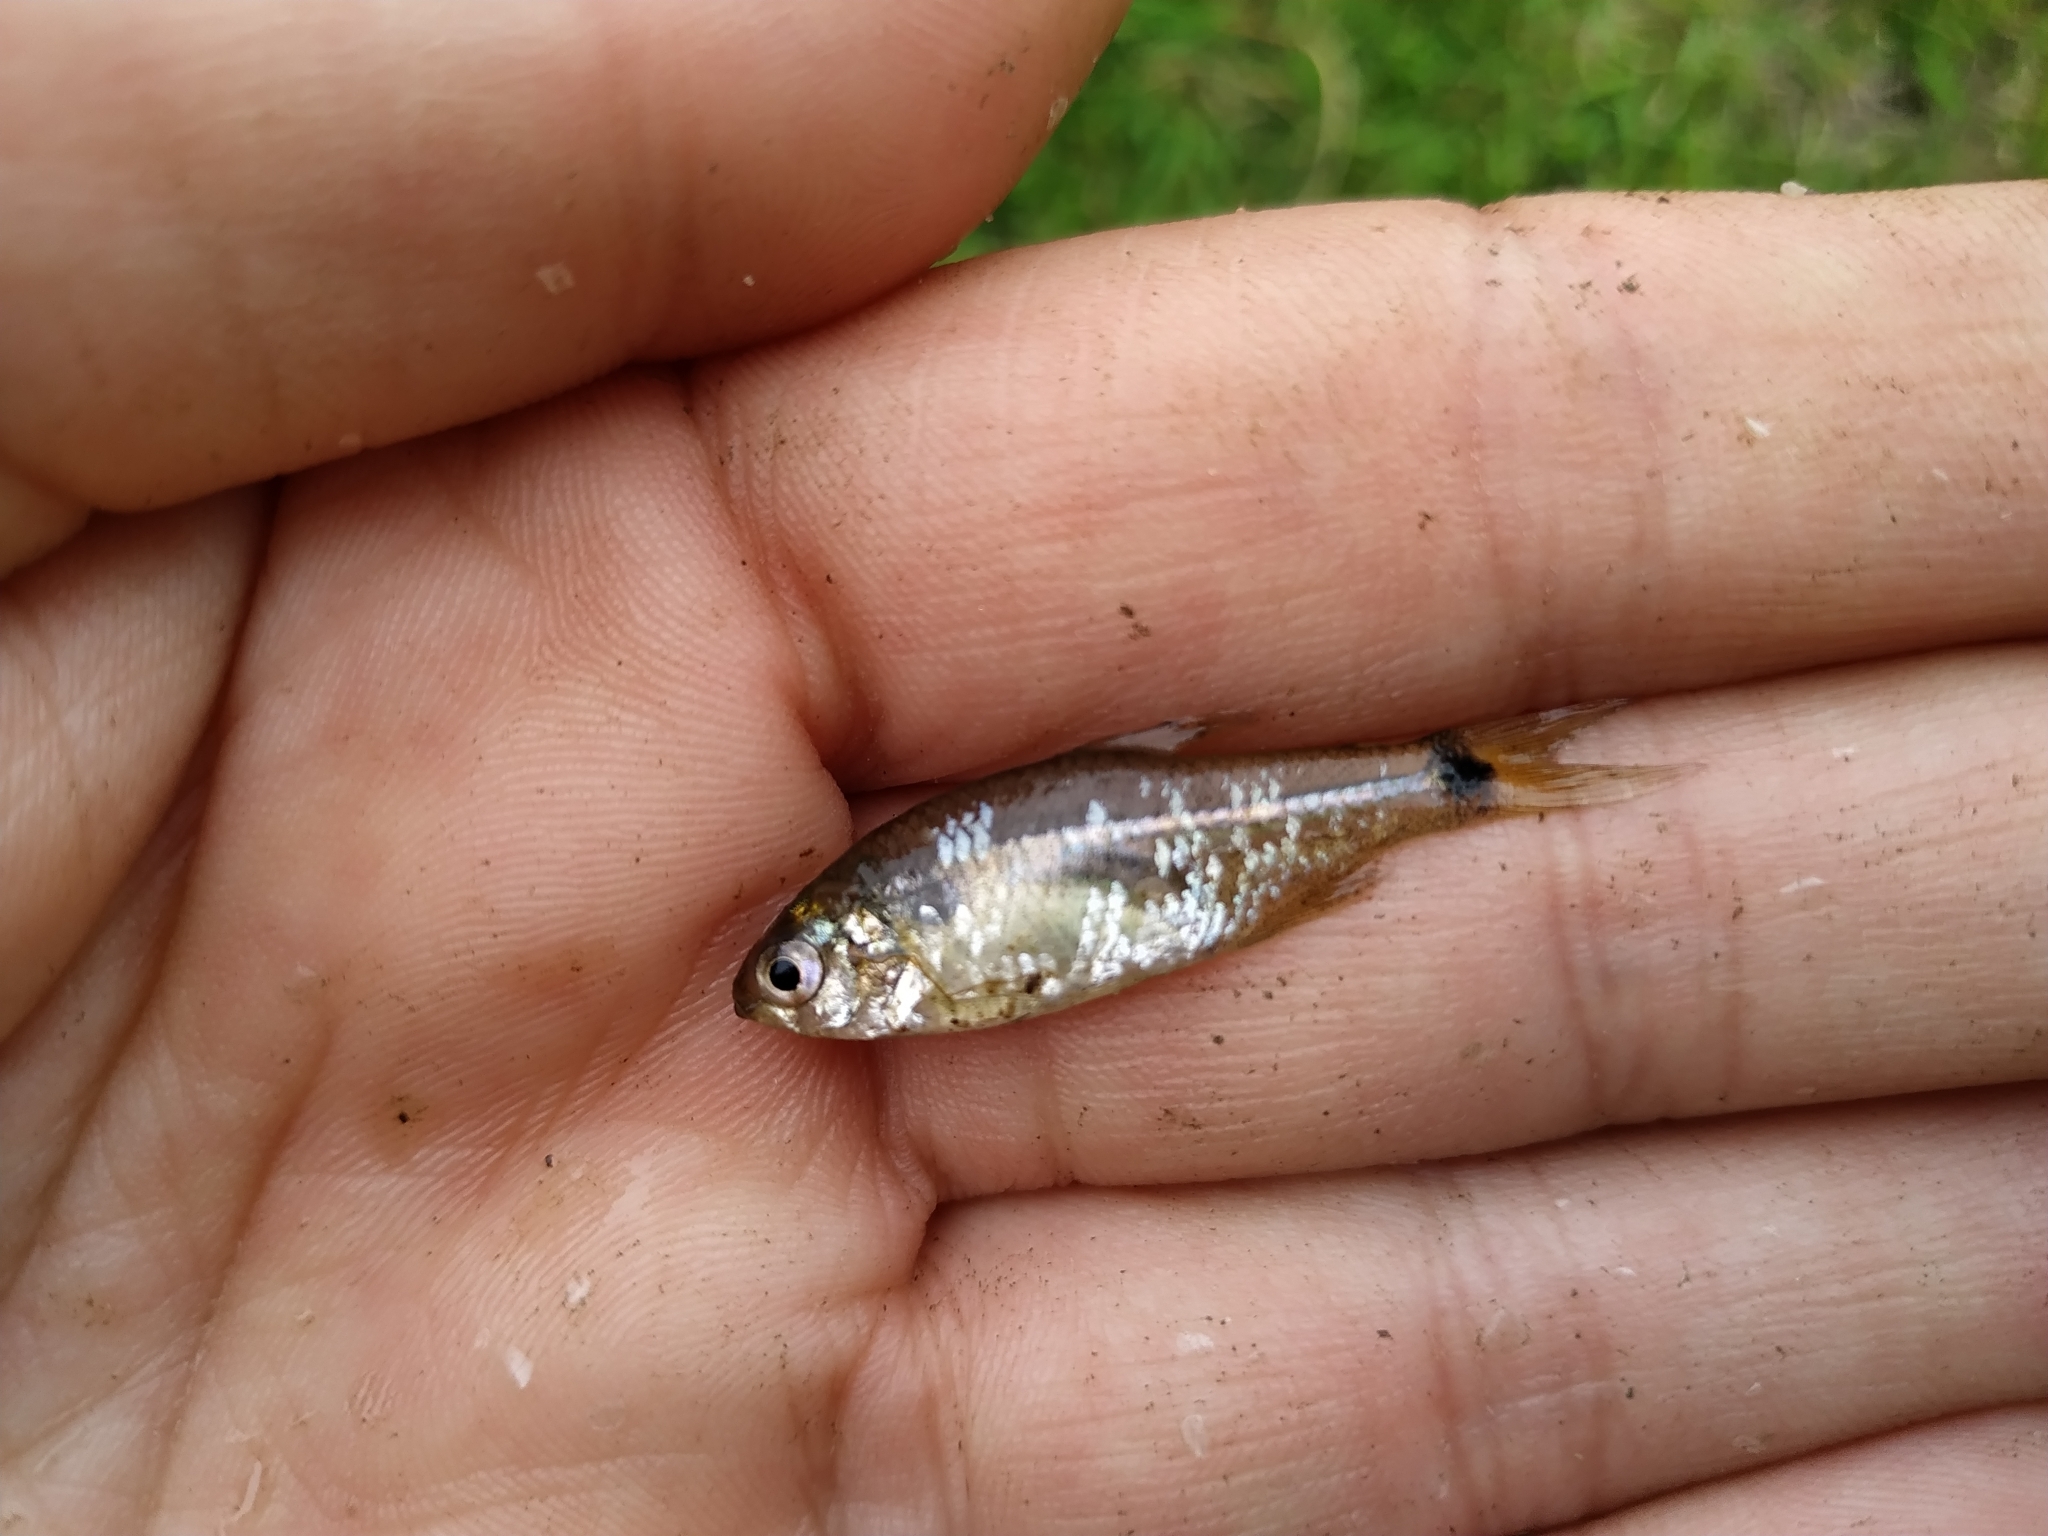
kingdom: Animalia
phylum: Chordata
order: Characiformes
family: Characidae
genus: Cheirodon
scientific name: Cheirodon interruptus
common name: Uruguay tetra
